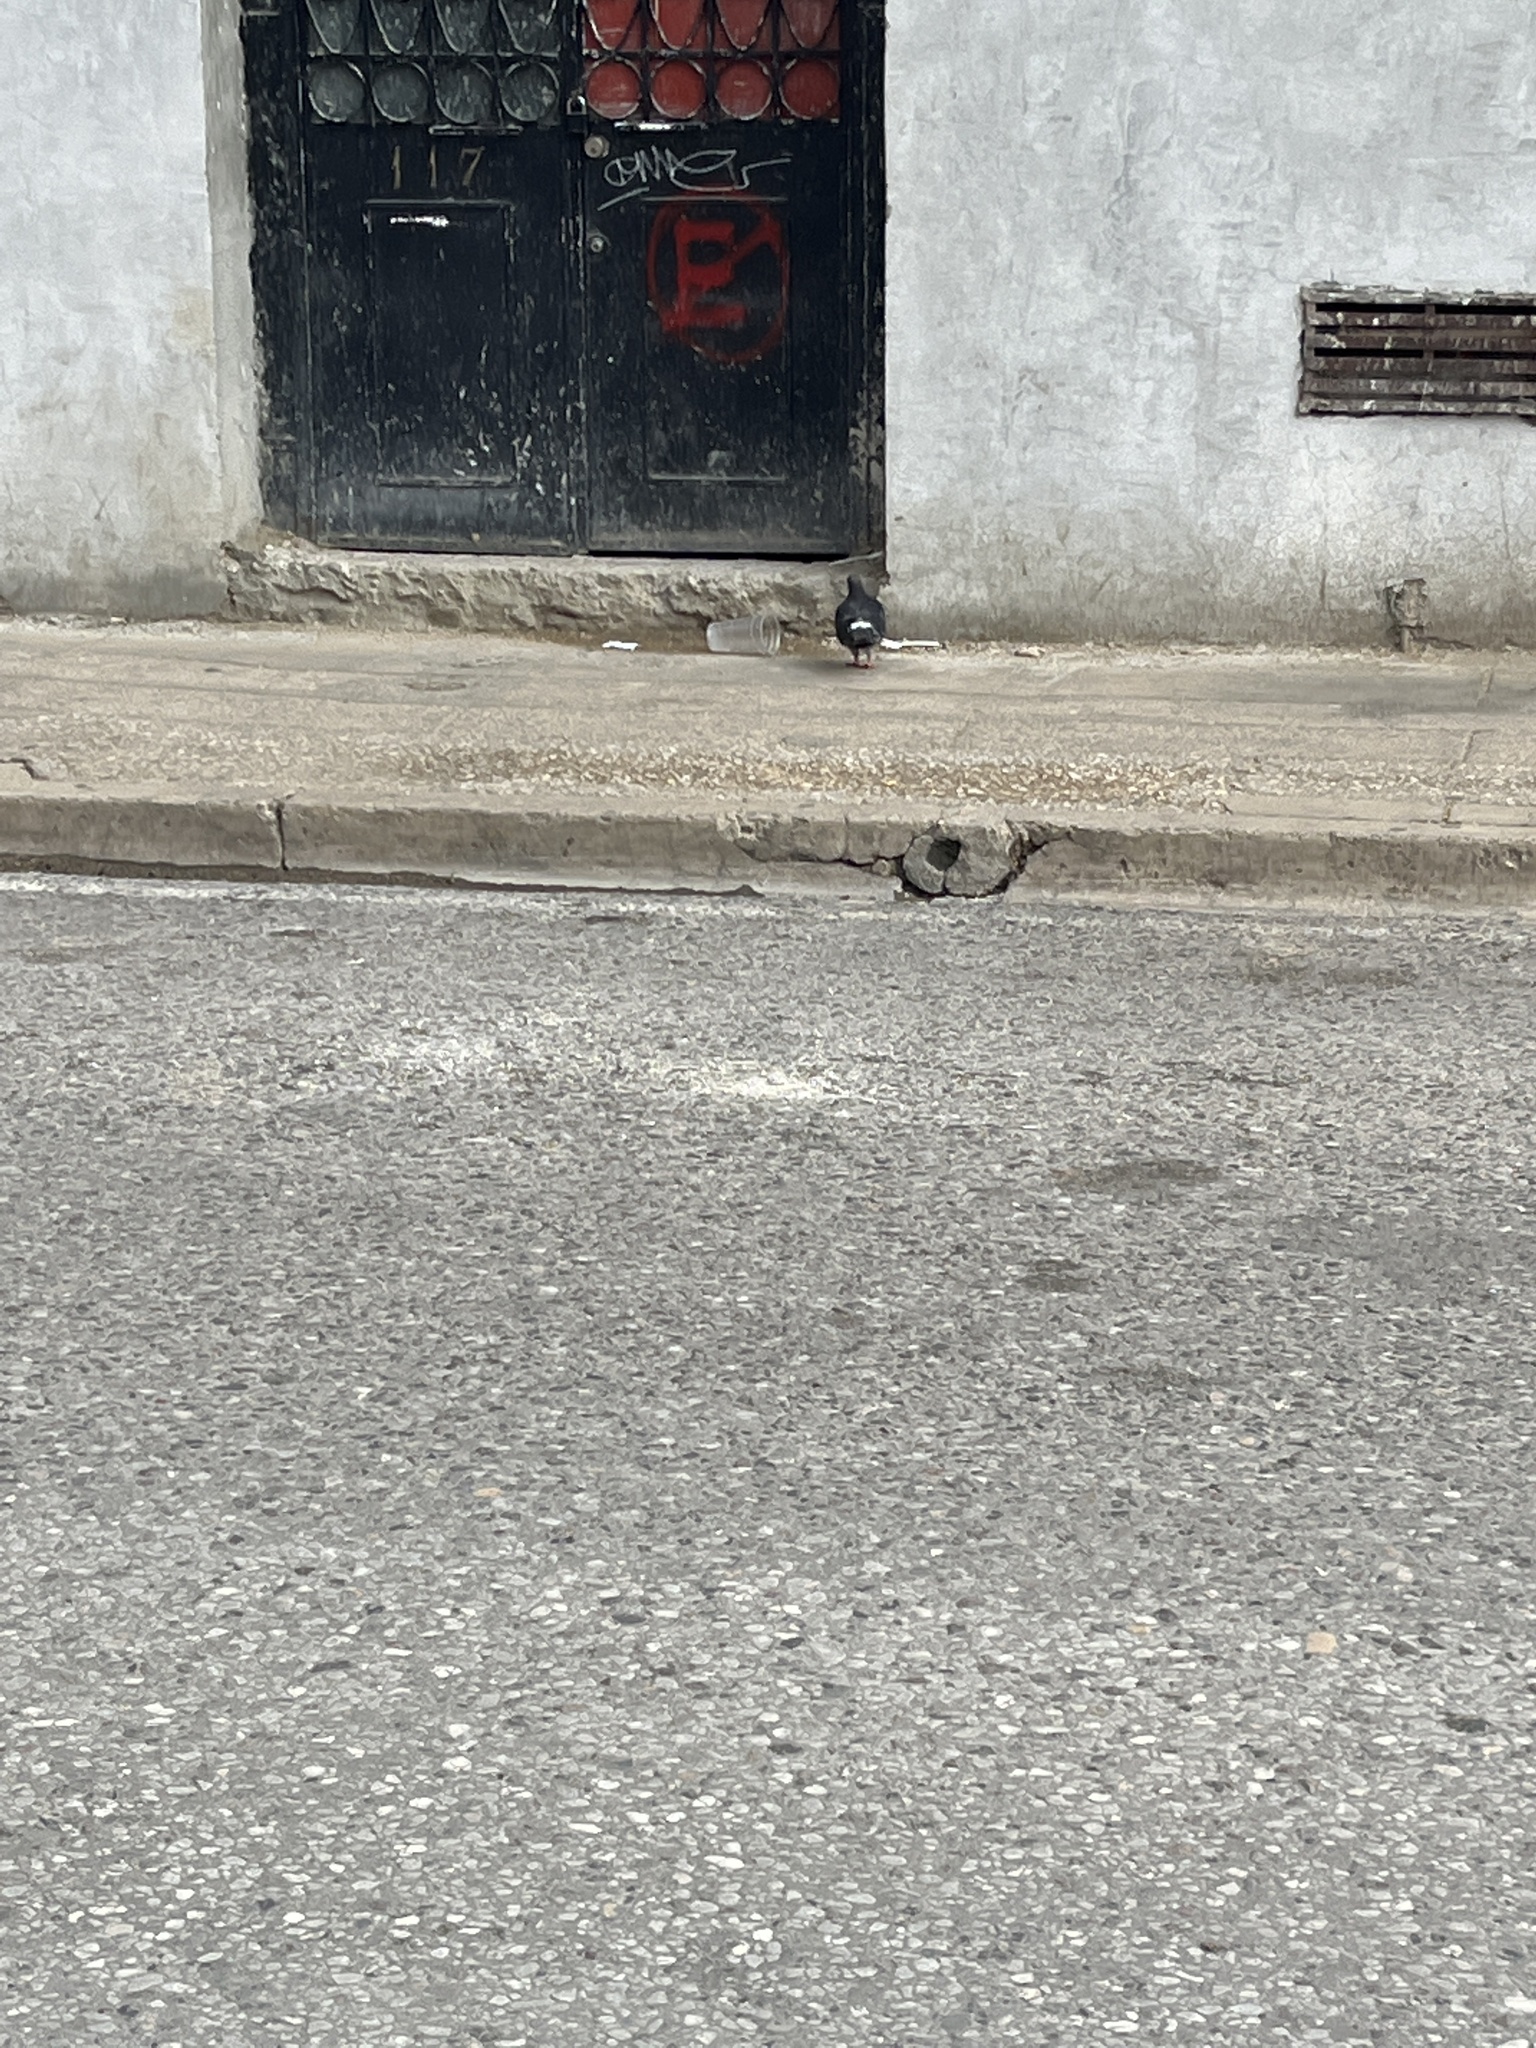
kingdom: Animalia
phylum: Chordata
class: Aves
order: Columbiformes
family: Columbidae
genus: Columba
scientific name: Columba livia
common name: Rock pigeon
